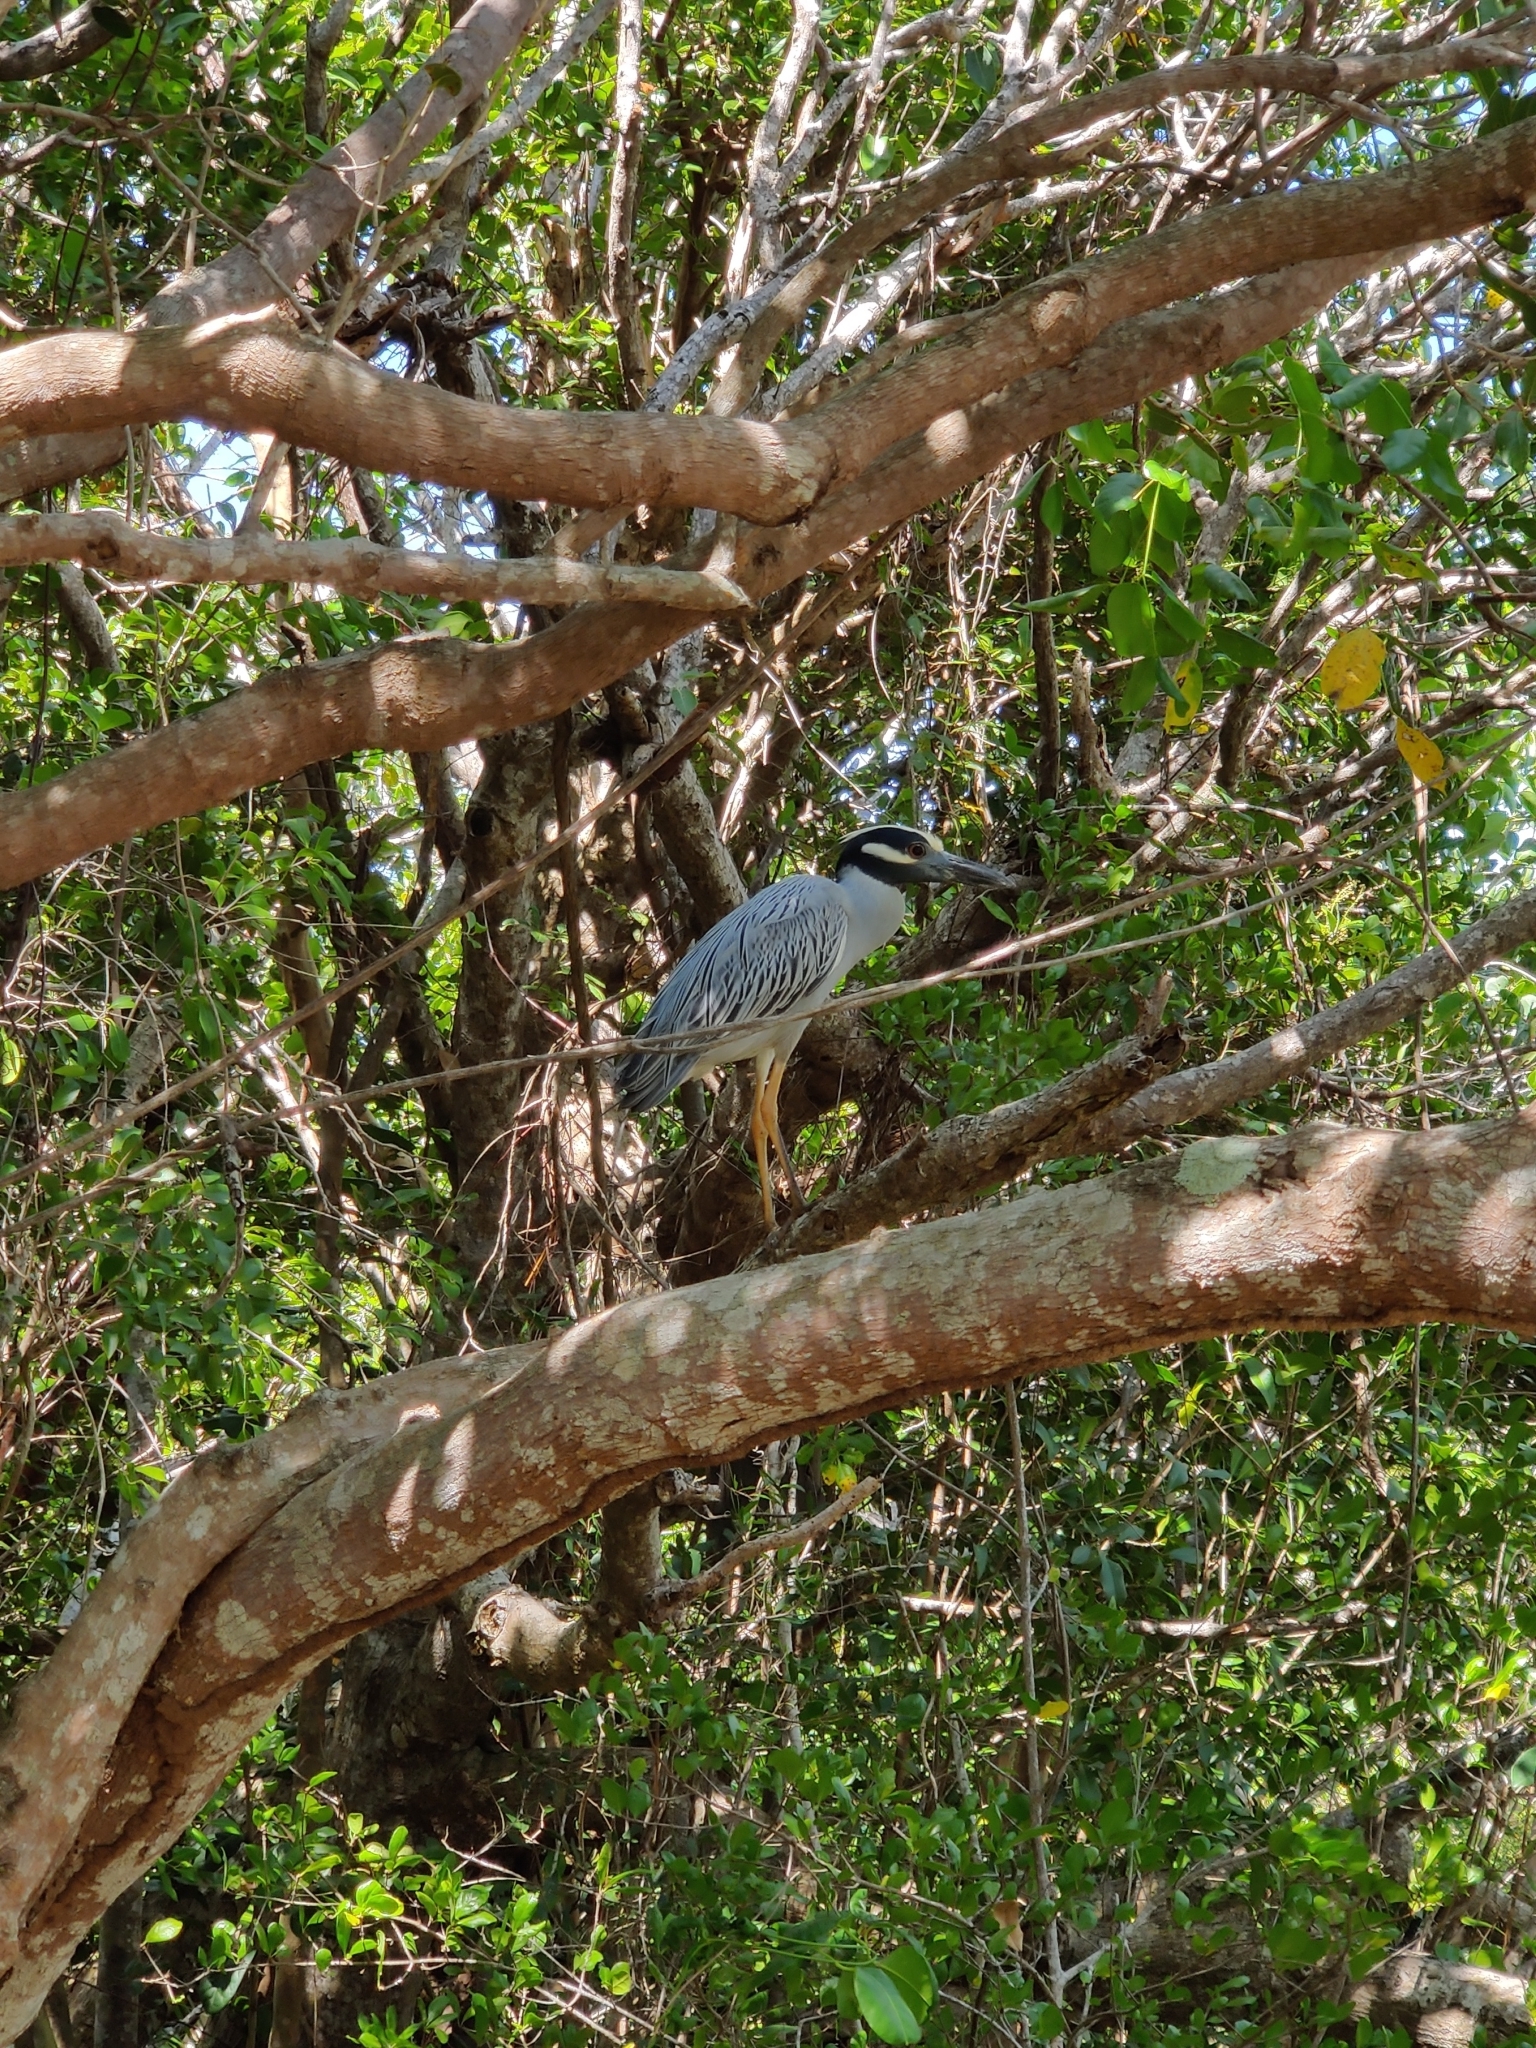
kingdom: Animalia
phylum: Chordata
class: Aves
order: Pelecaniformes
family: Ardeidae
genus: Nyctanassa
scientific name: Nyctanassa violacea
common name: Yellow-crowned night heron
